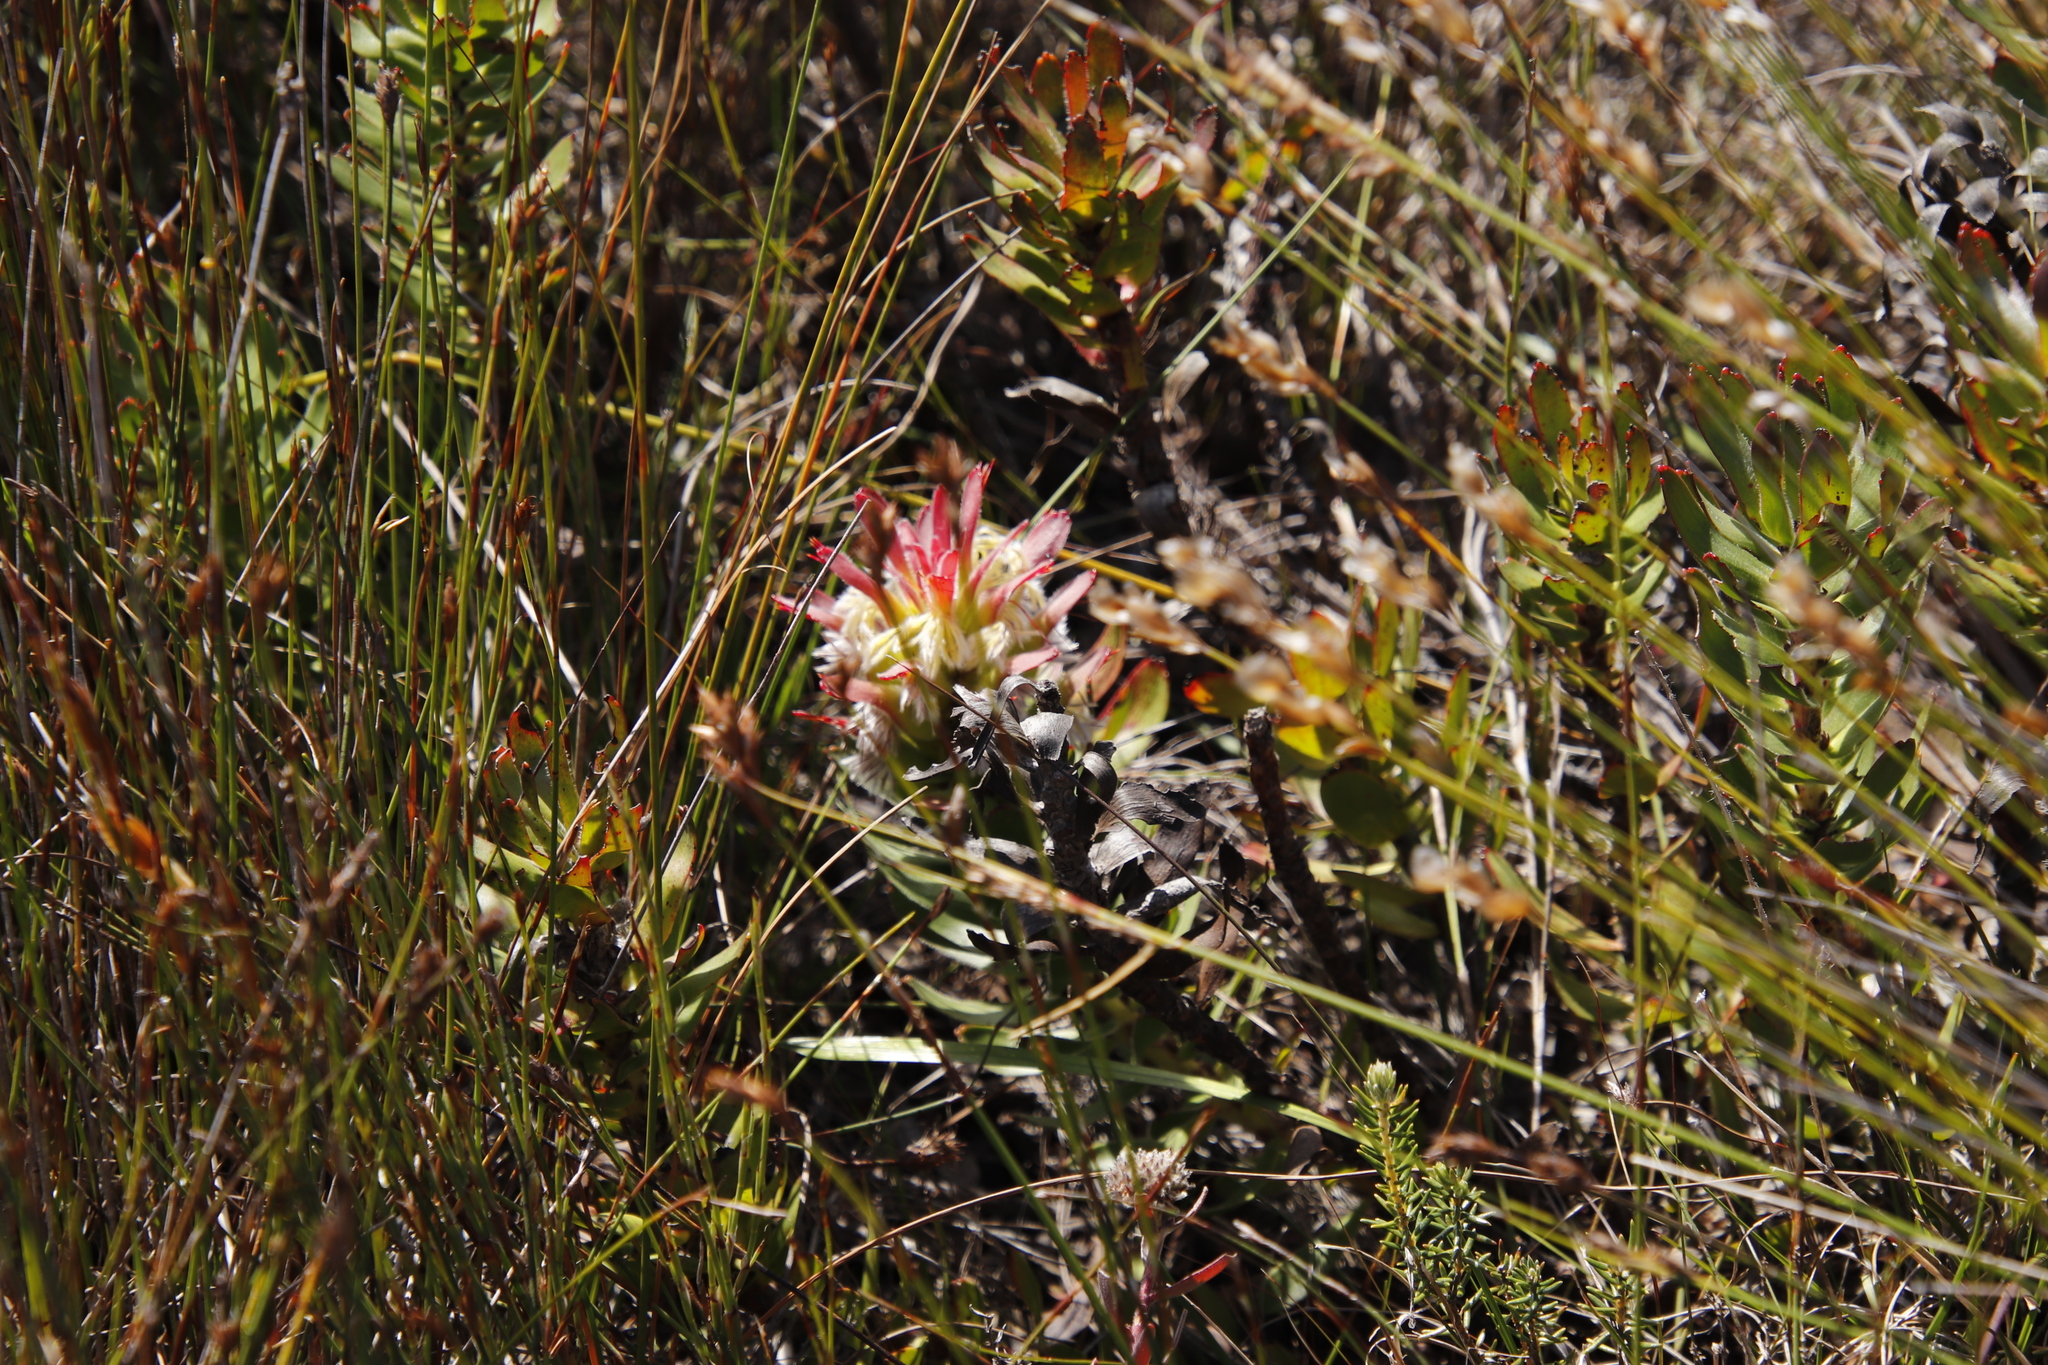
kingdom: Plantae
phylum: Tracheophyta
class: Magnoliopsida
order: Proteales
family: Proteaceae
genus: Mimetes
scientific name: Mimetes cucullatus
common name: Common pagoda
